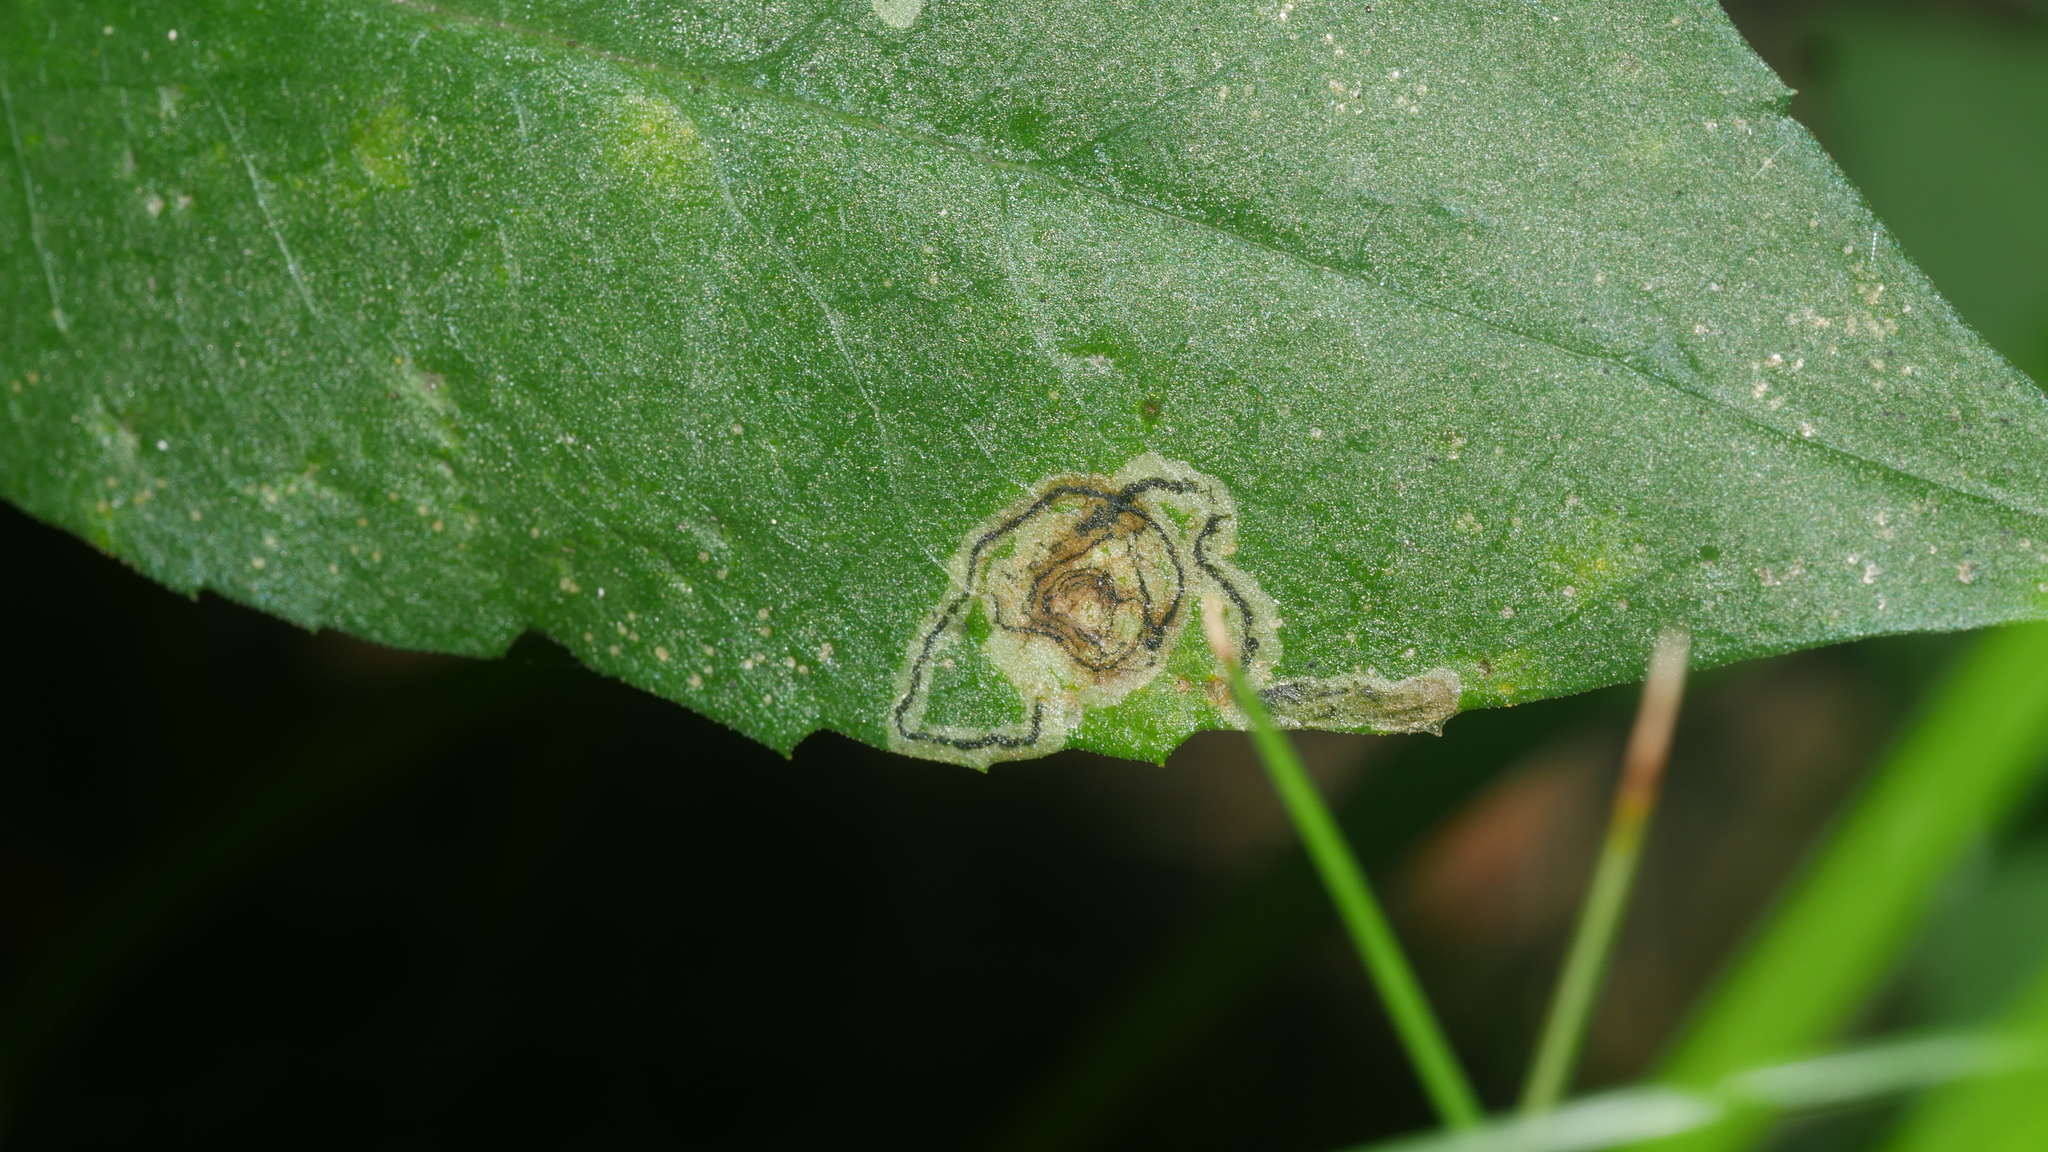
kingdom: Animalia
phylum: Arthropoda
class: Insecta
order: Diptera
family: Agromyzidae
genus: Liriomyza
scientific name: Liriomyza eupatorii
